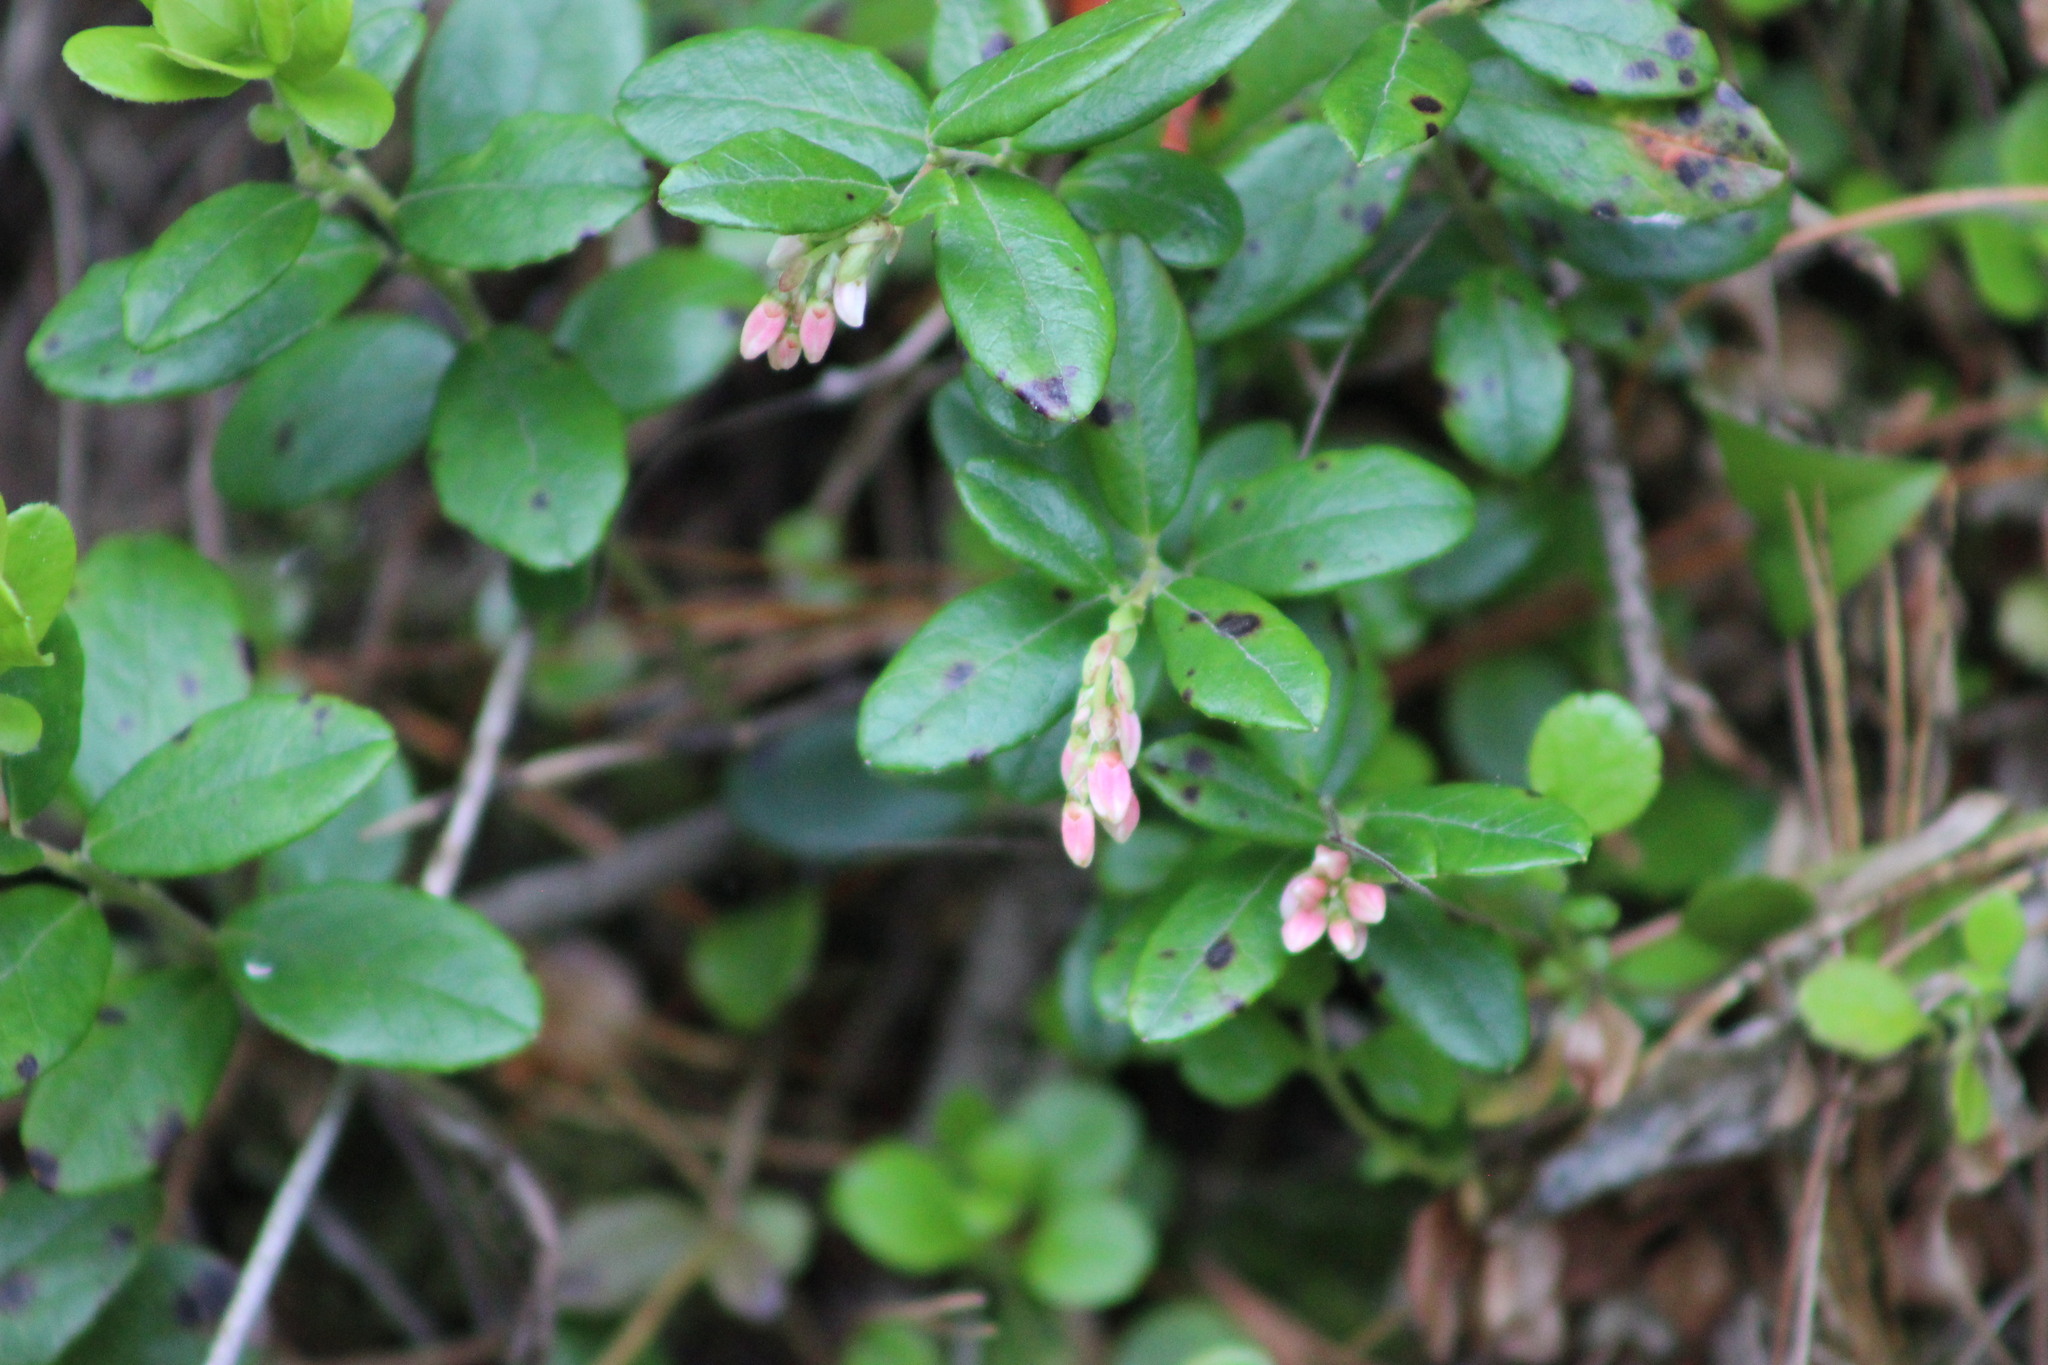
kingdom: Plantae
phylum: Tracheophyta
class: Magnoliopsida
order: Ericales
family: Ericaceae
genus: Vaccinium
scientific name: Vaccinium vitis-idaea
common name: Cowberry
